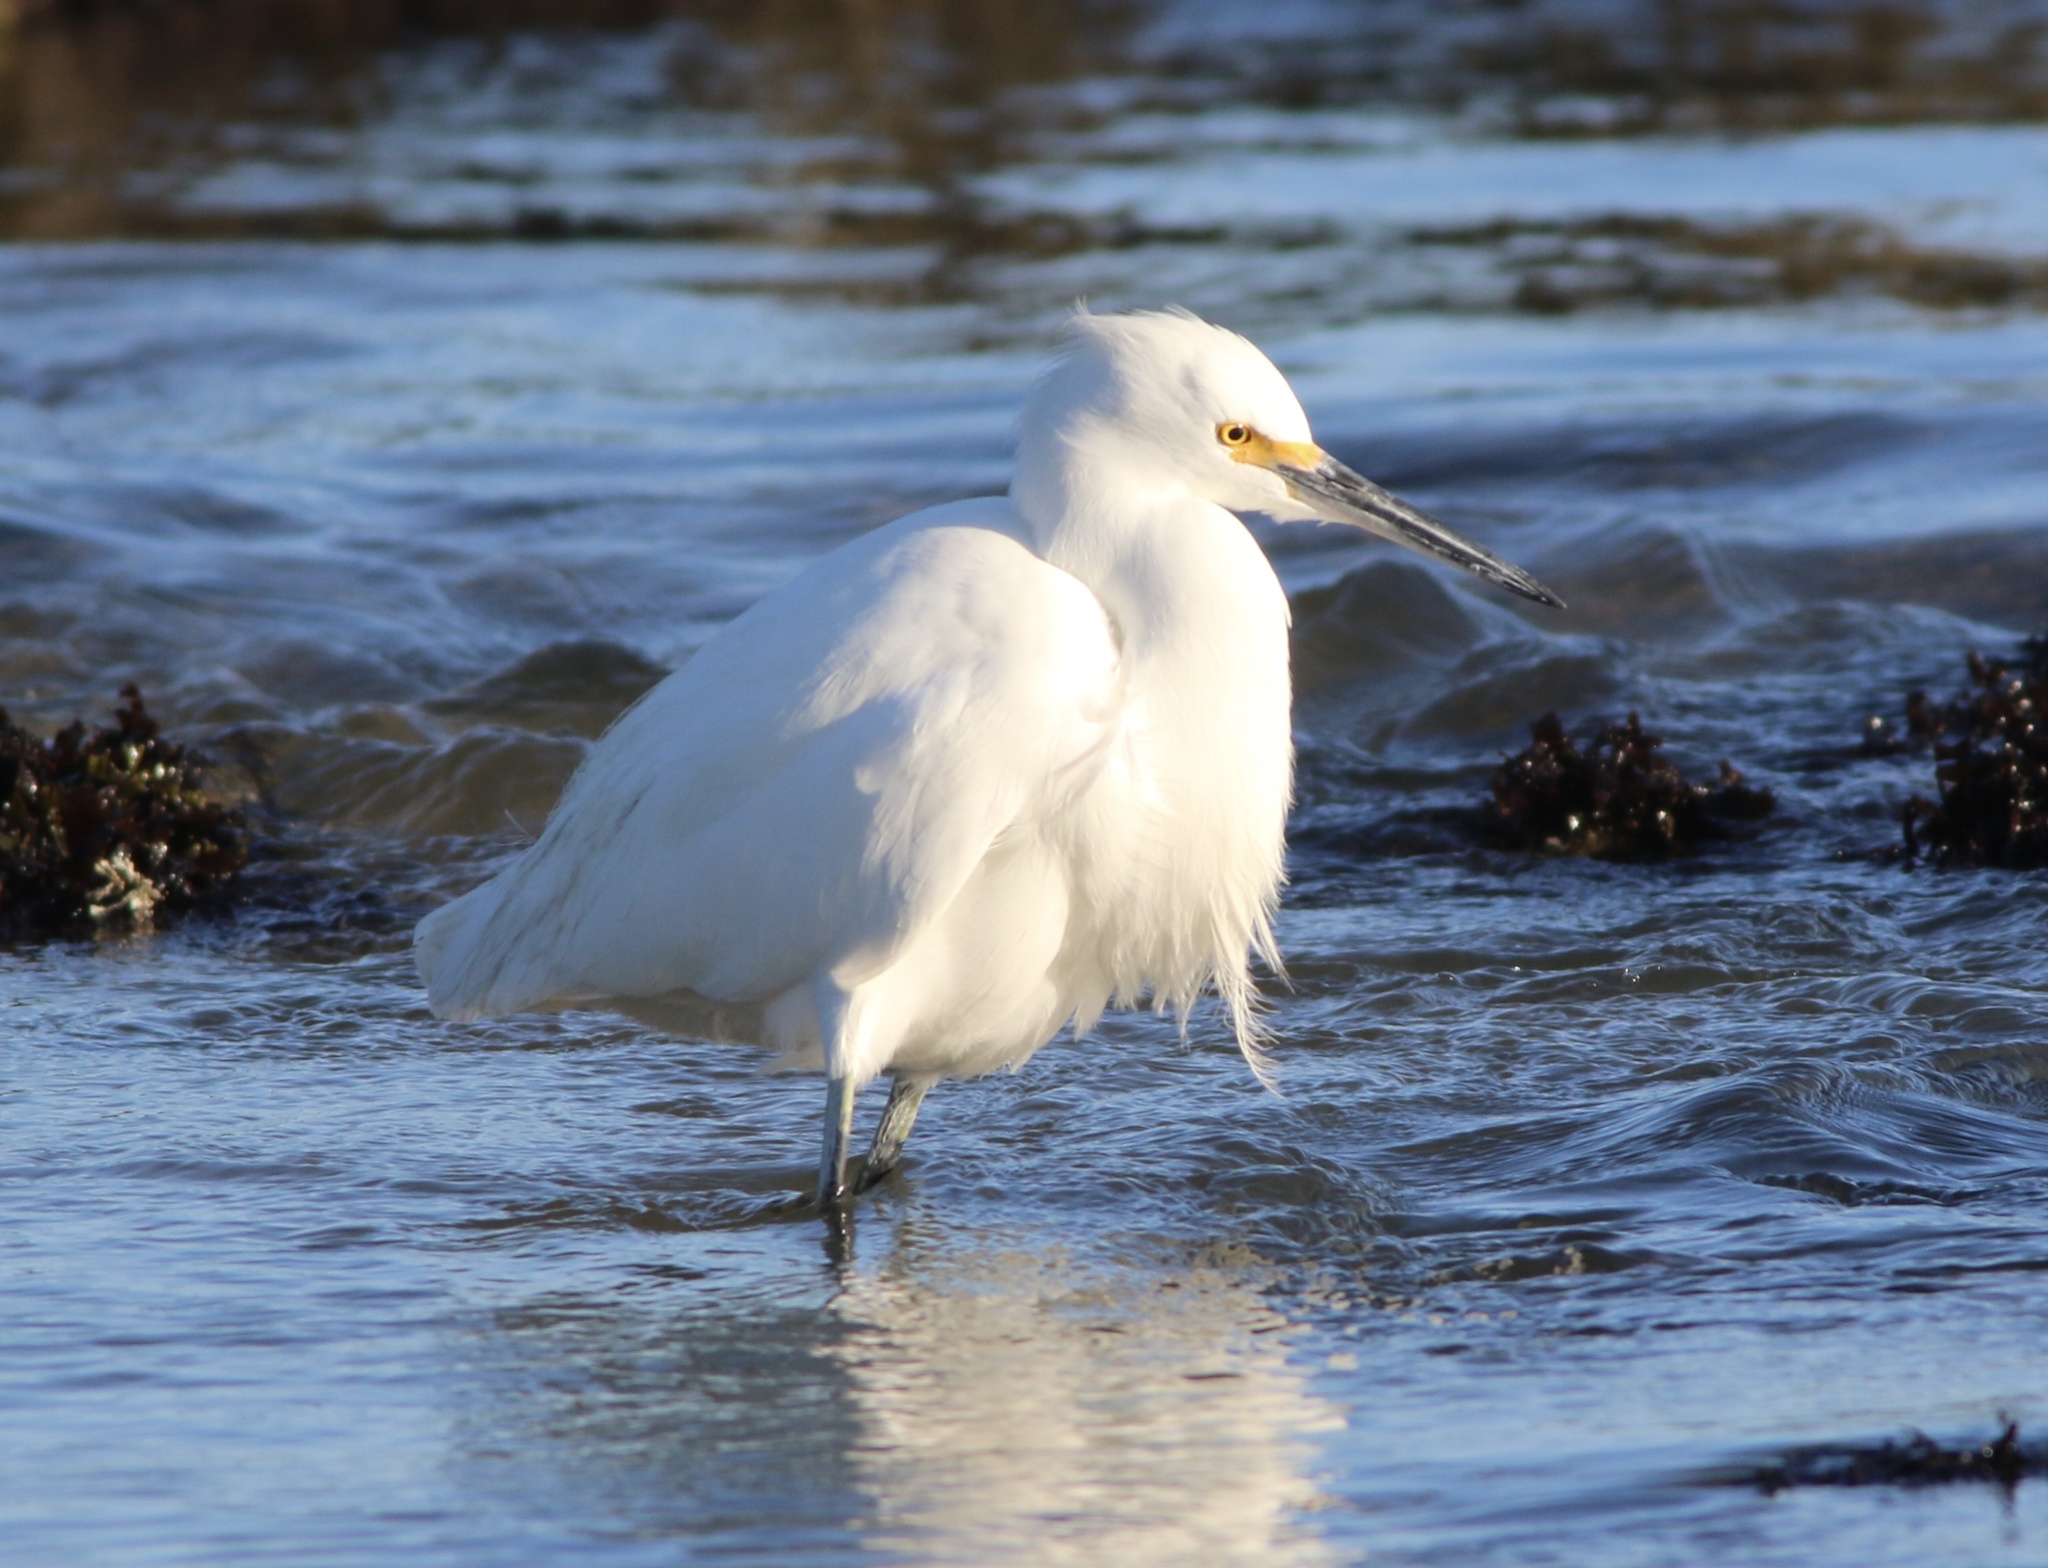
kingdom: Animalia
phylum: Chordata
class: Aves
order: Pelecaniformes
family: Ardeidae
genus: Egretta
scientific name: Egretta thula
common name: Snowy egret
